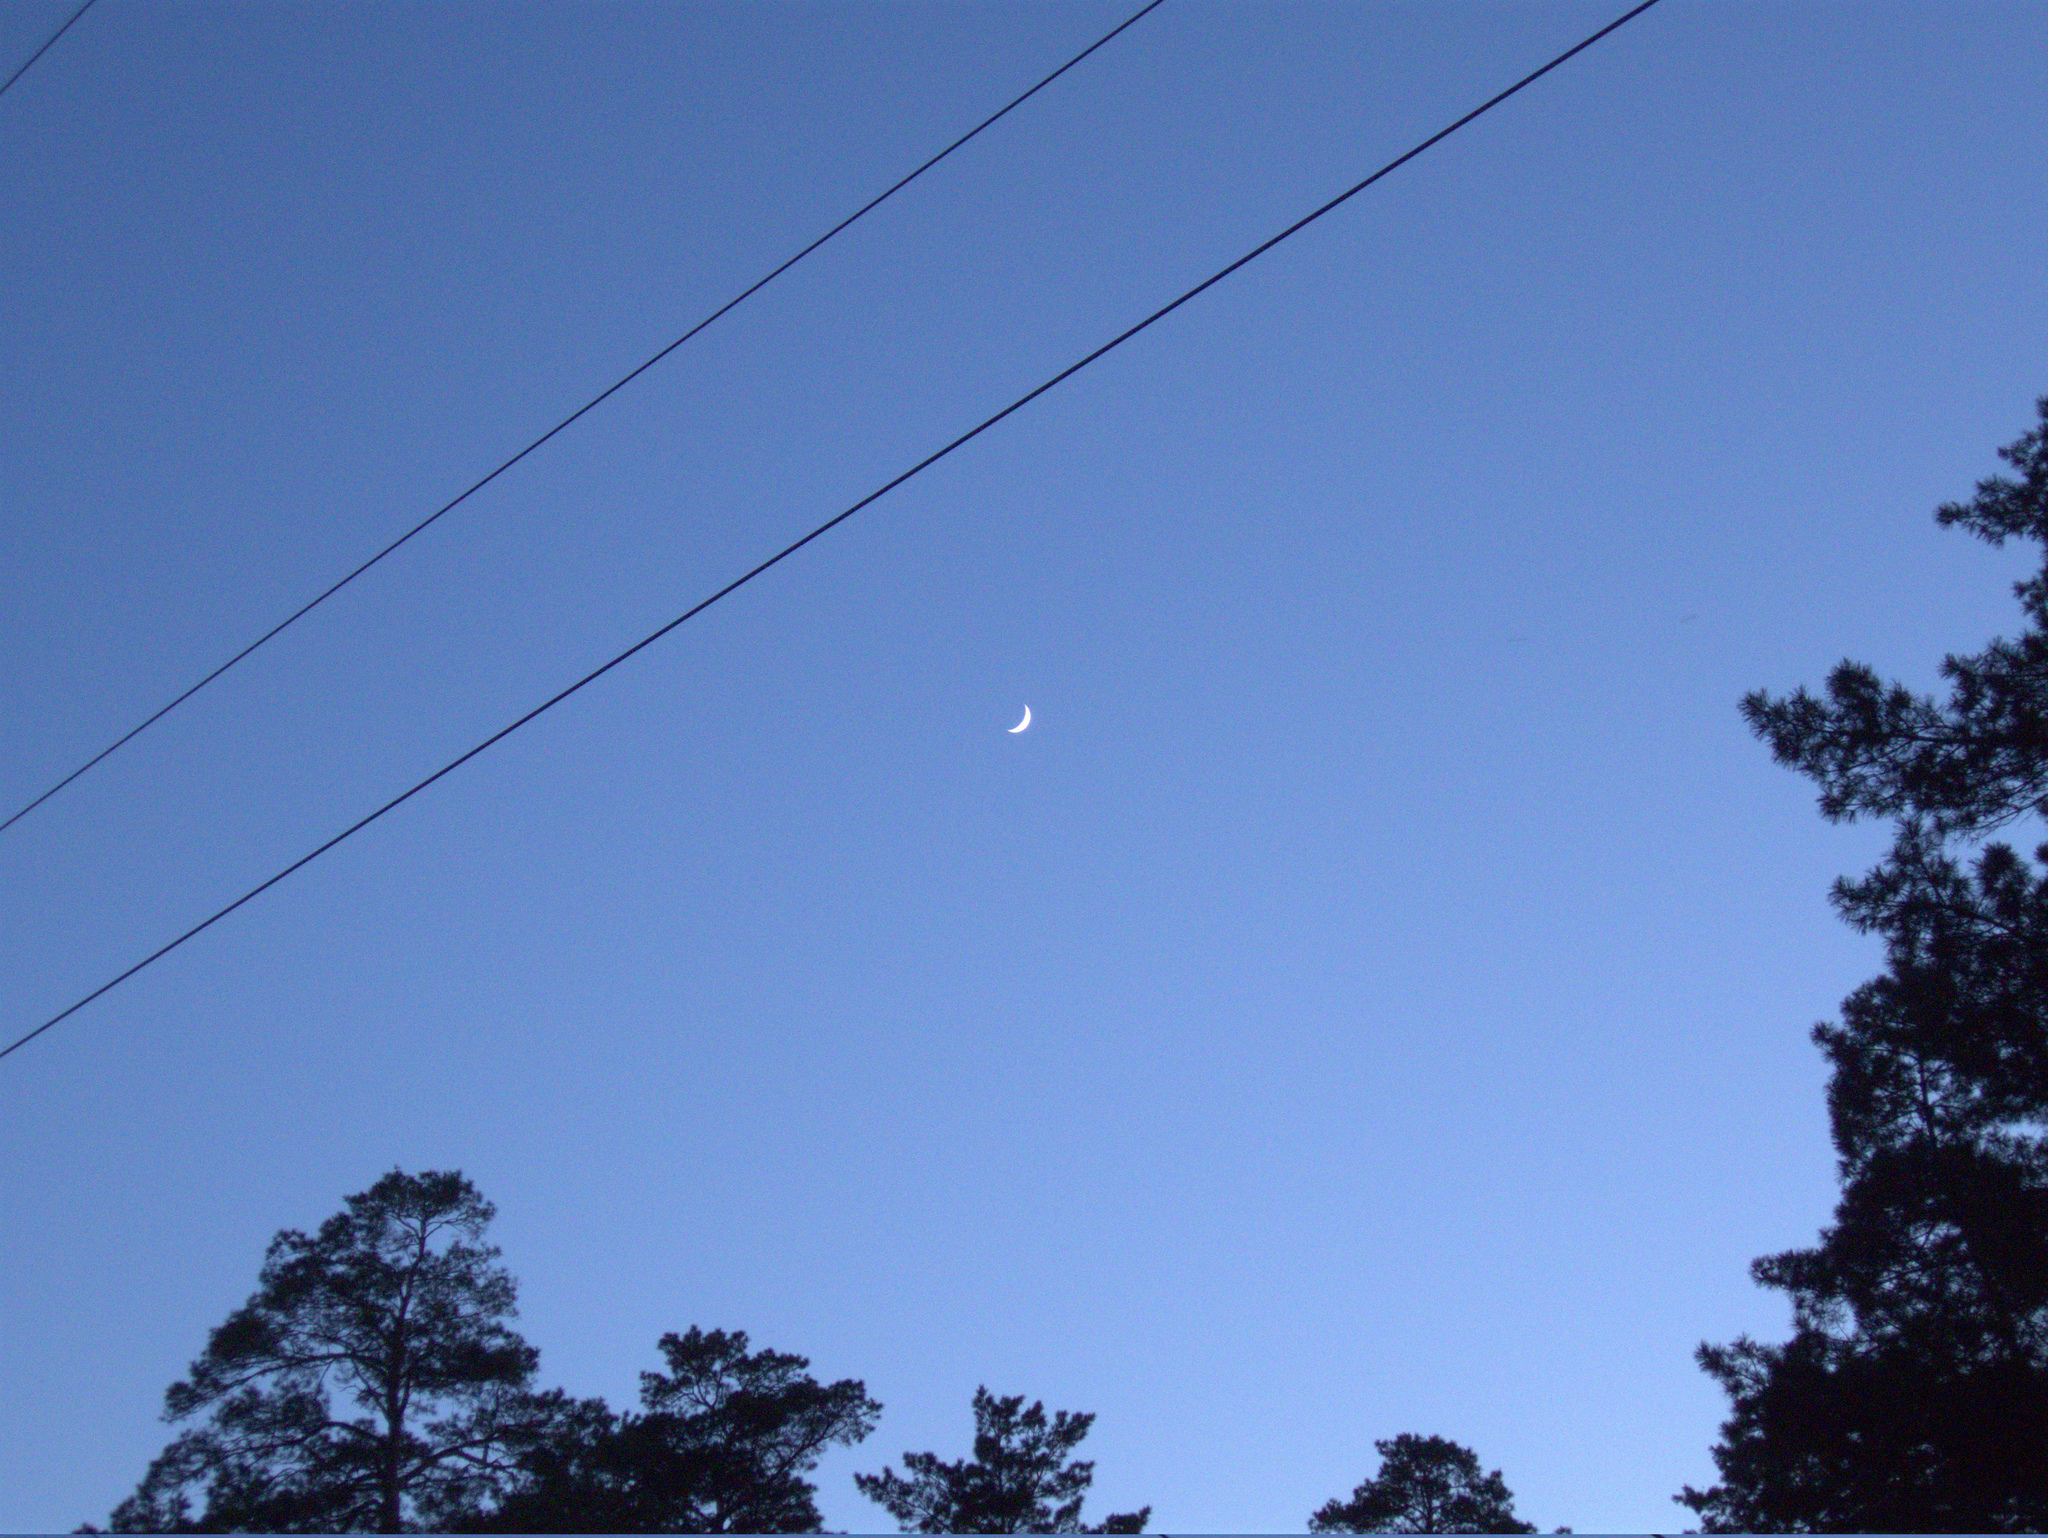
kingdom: Plantae
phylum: Tracheophyta
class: Pinopsida
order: Pinales
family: Pinaceae
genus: Pinus
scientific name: Pinus sylvestris
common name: Scots pine
